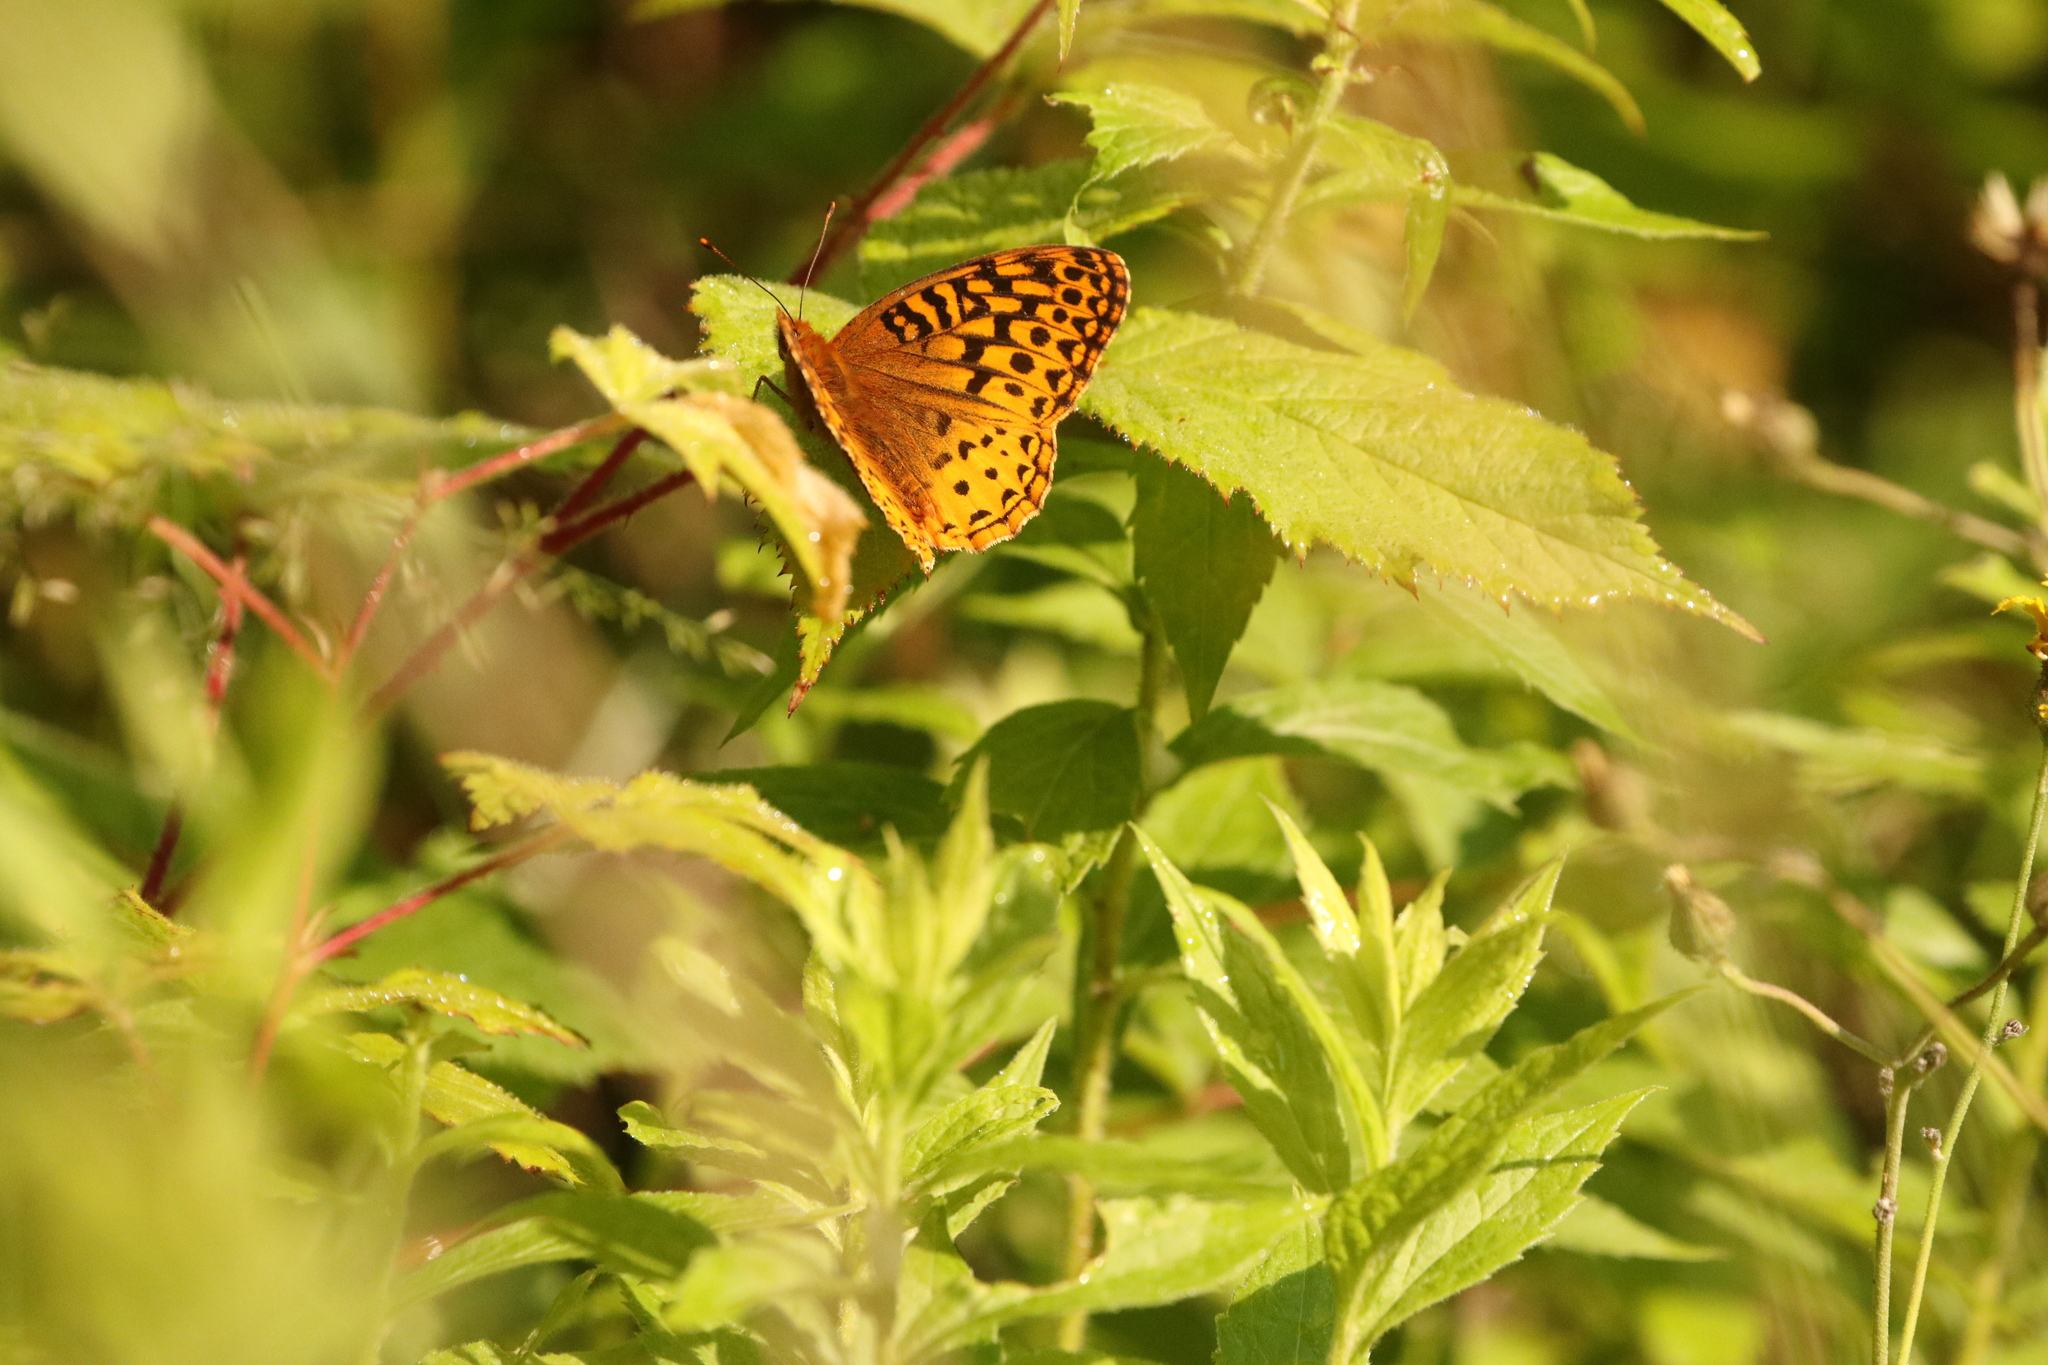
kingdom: Animalia
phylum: Arthropoda
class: Insecta
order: Lepidoptera
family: Nymphalidae
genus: Speyeria
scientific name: Speyeria cybele
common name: Great spangled fritillary
